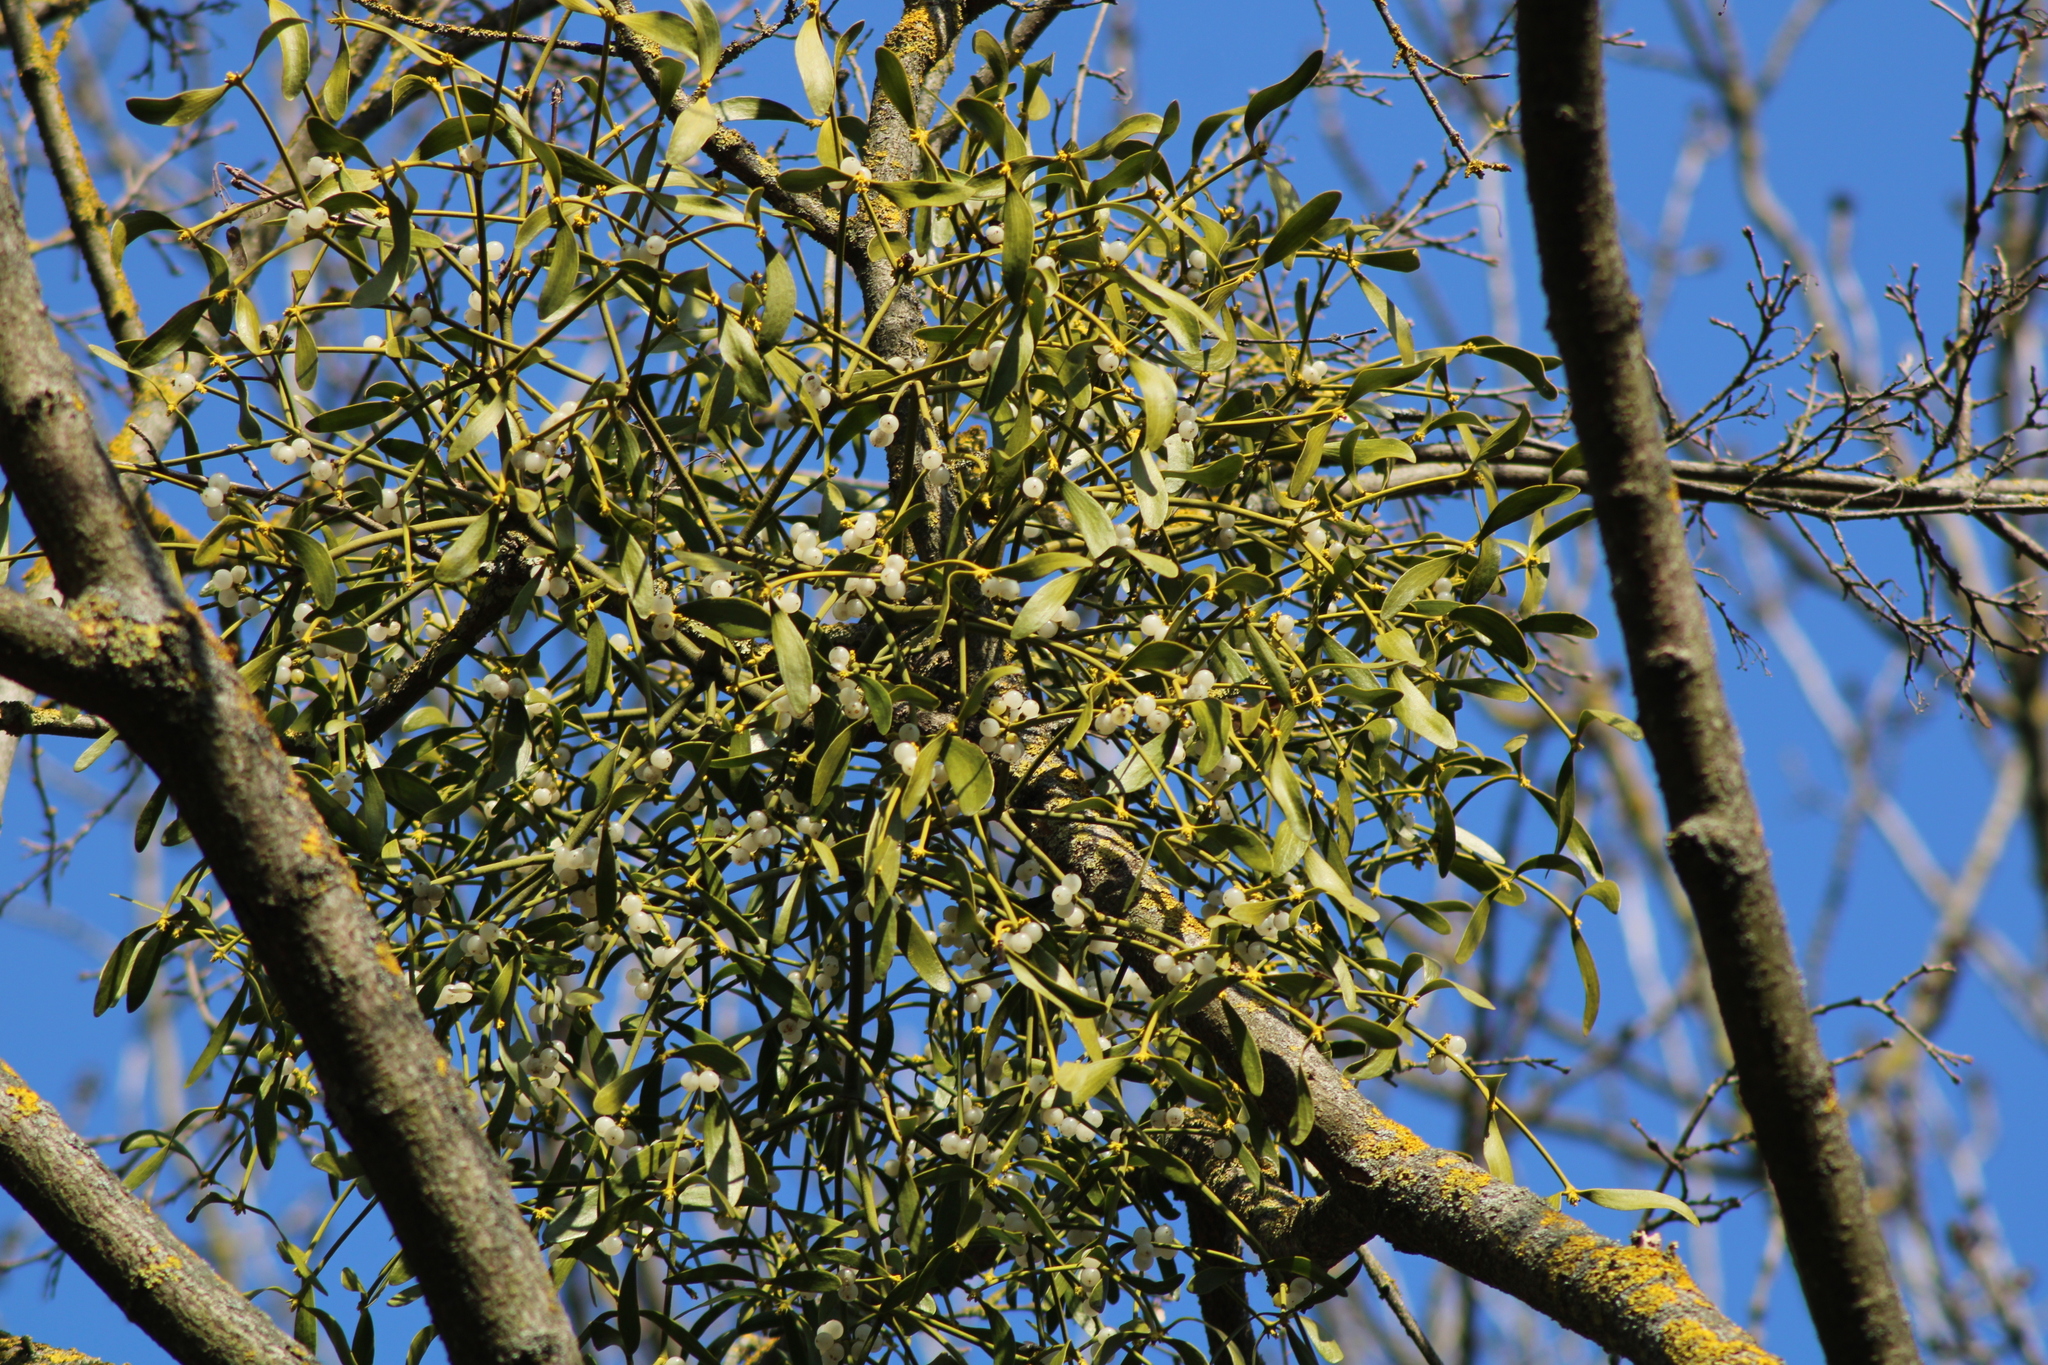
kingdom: Plantae
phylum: Tracheophyta
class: Magnoliopsida
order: Santalales
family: Viscaceae
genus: Viscum
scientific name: Viscum album
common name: Mistletoe
